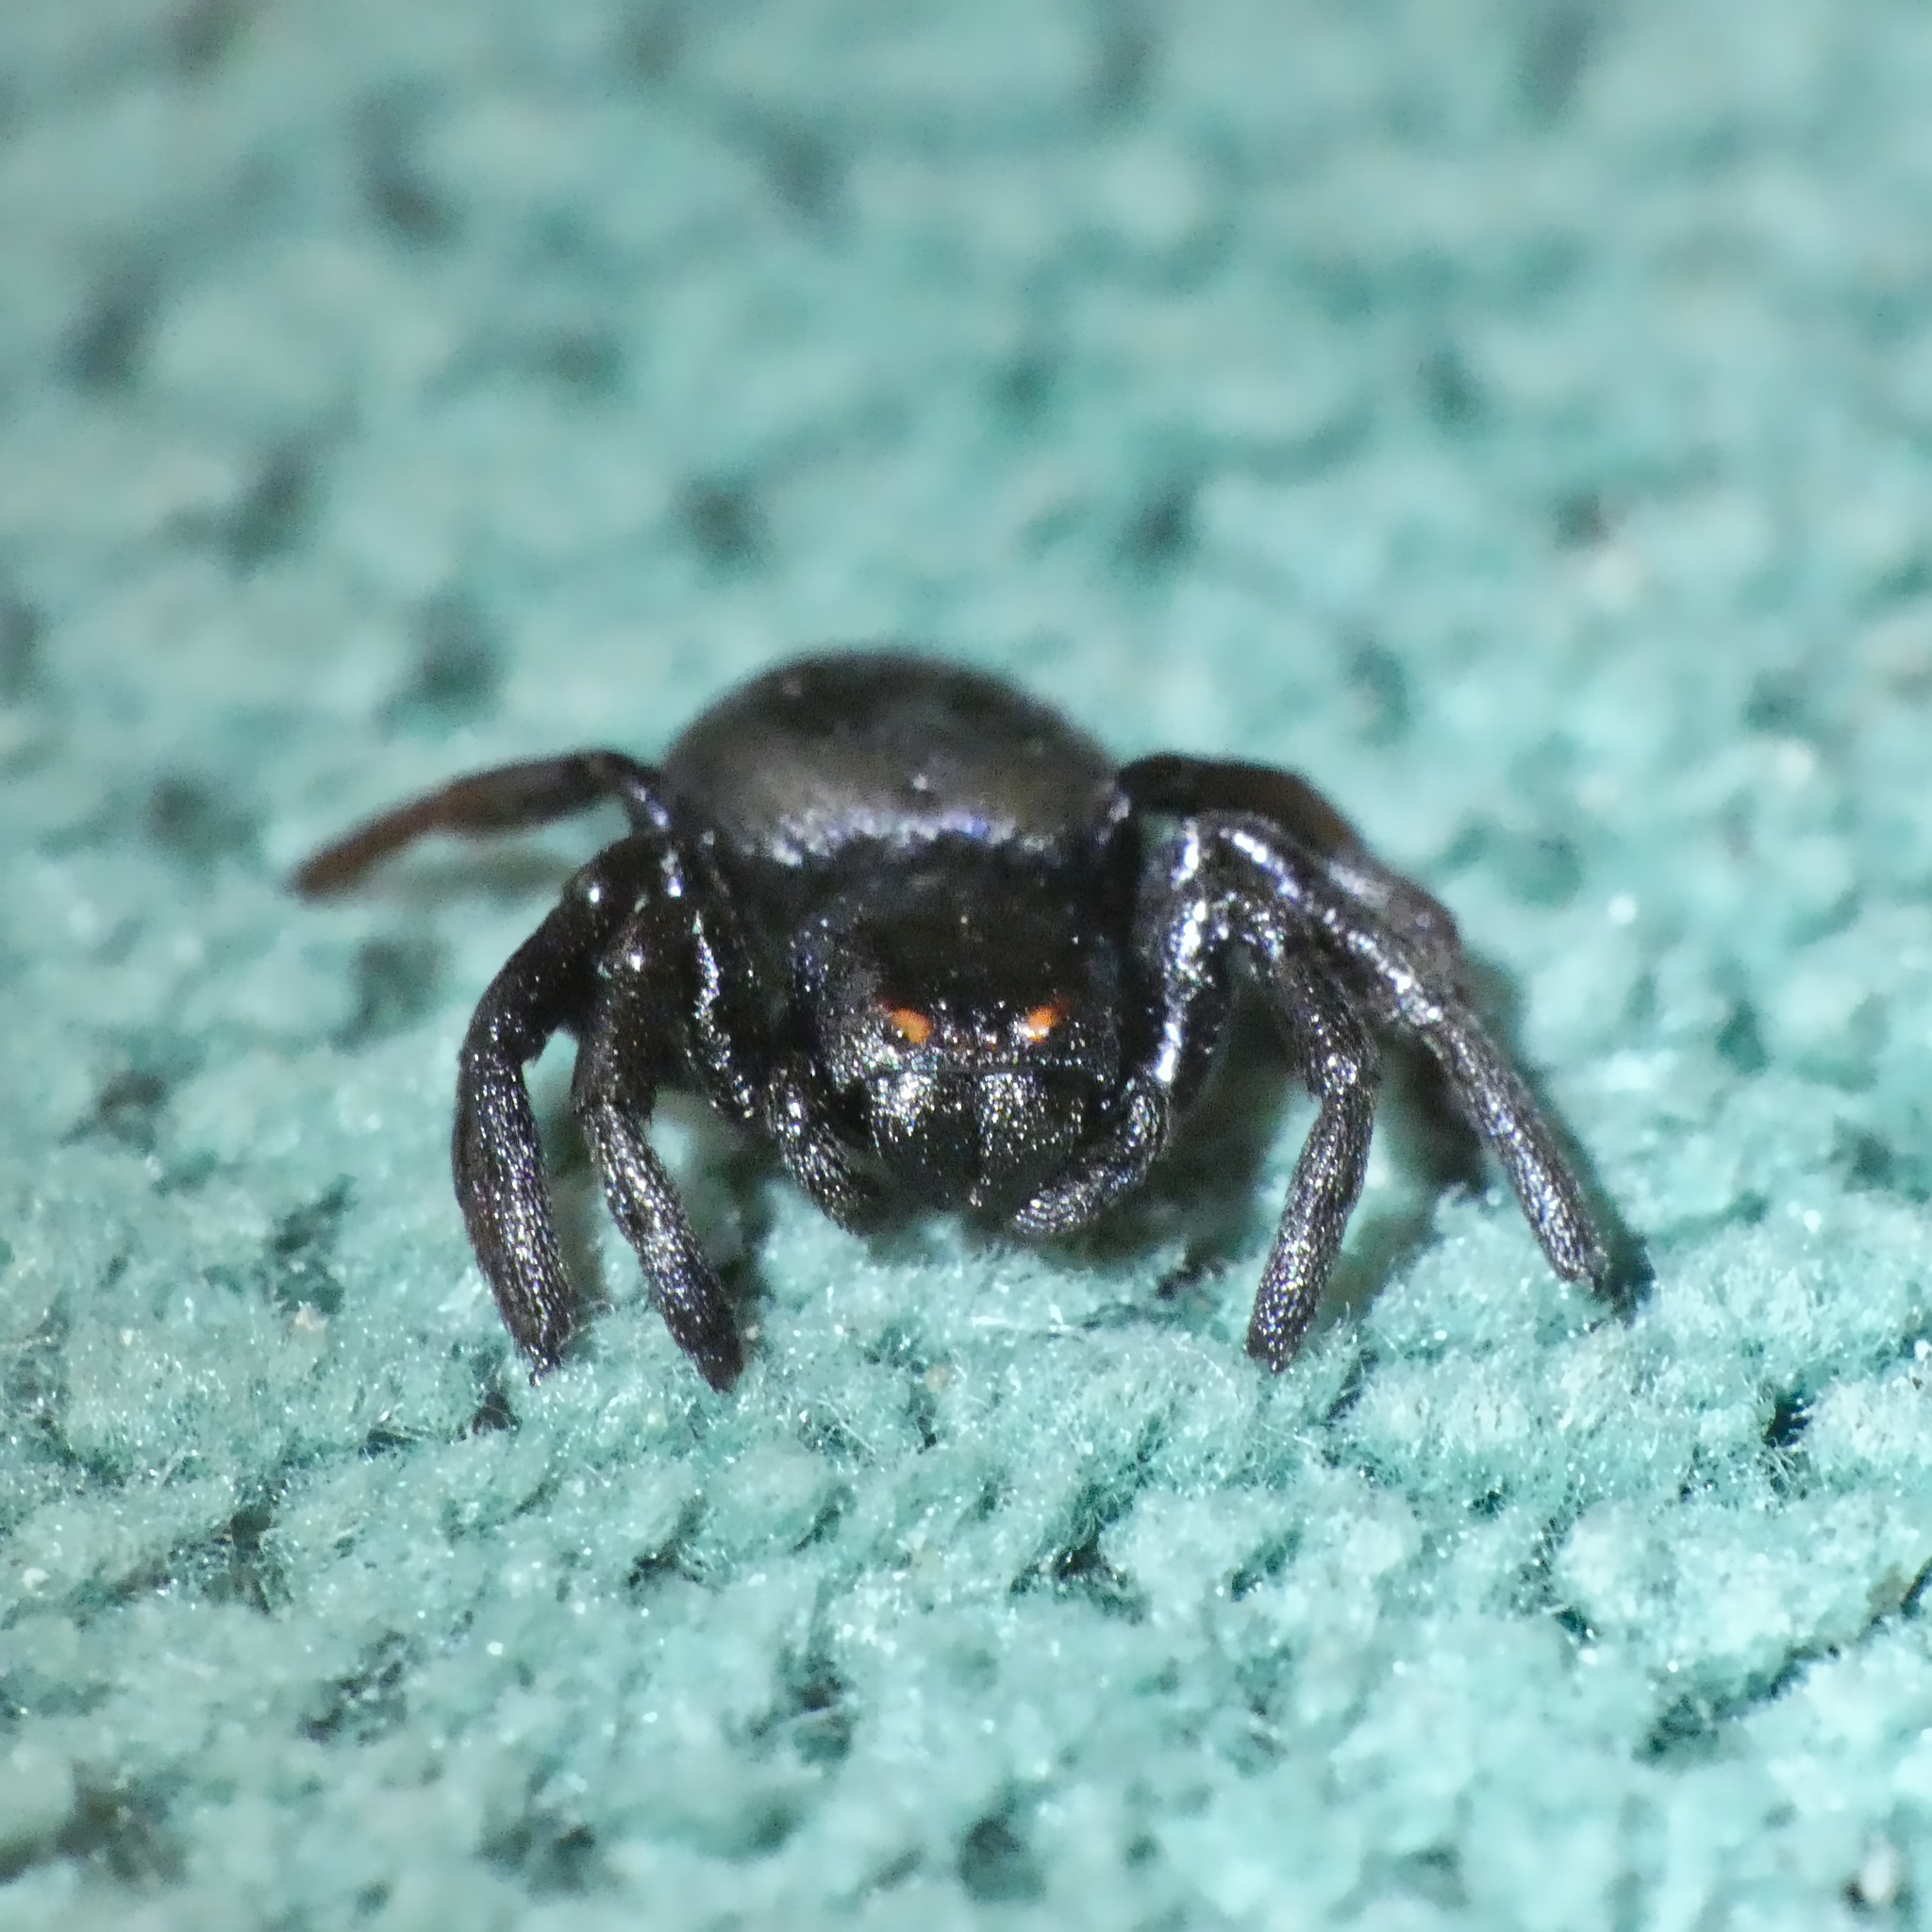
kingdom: Animalia
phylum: Arthropoda
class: Arachnida
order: Araneae
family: Thomisidae
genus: Stiphropus
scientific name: Stiphropus affinis
